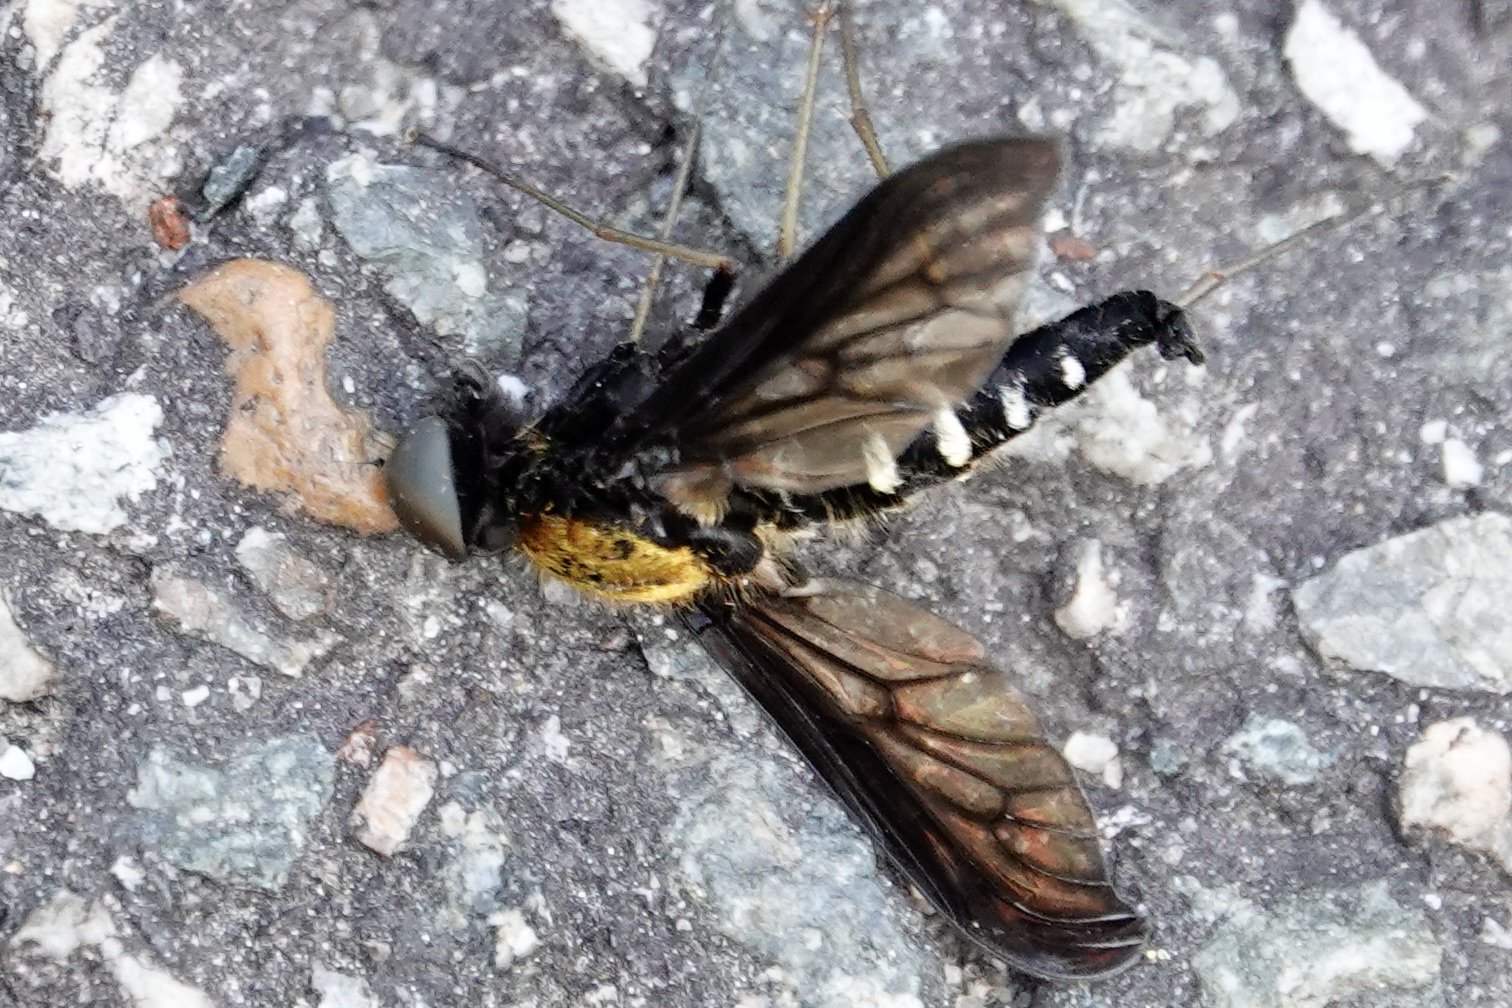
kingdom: Animalia
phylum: Arthropoda
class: Insecta
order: Diptera
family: Rhagionidae
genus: Chrysopilus
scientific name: Chrysopilus thoracicus
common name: Golden-backed snipe fly
